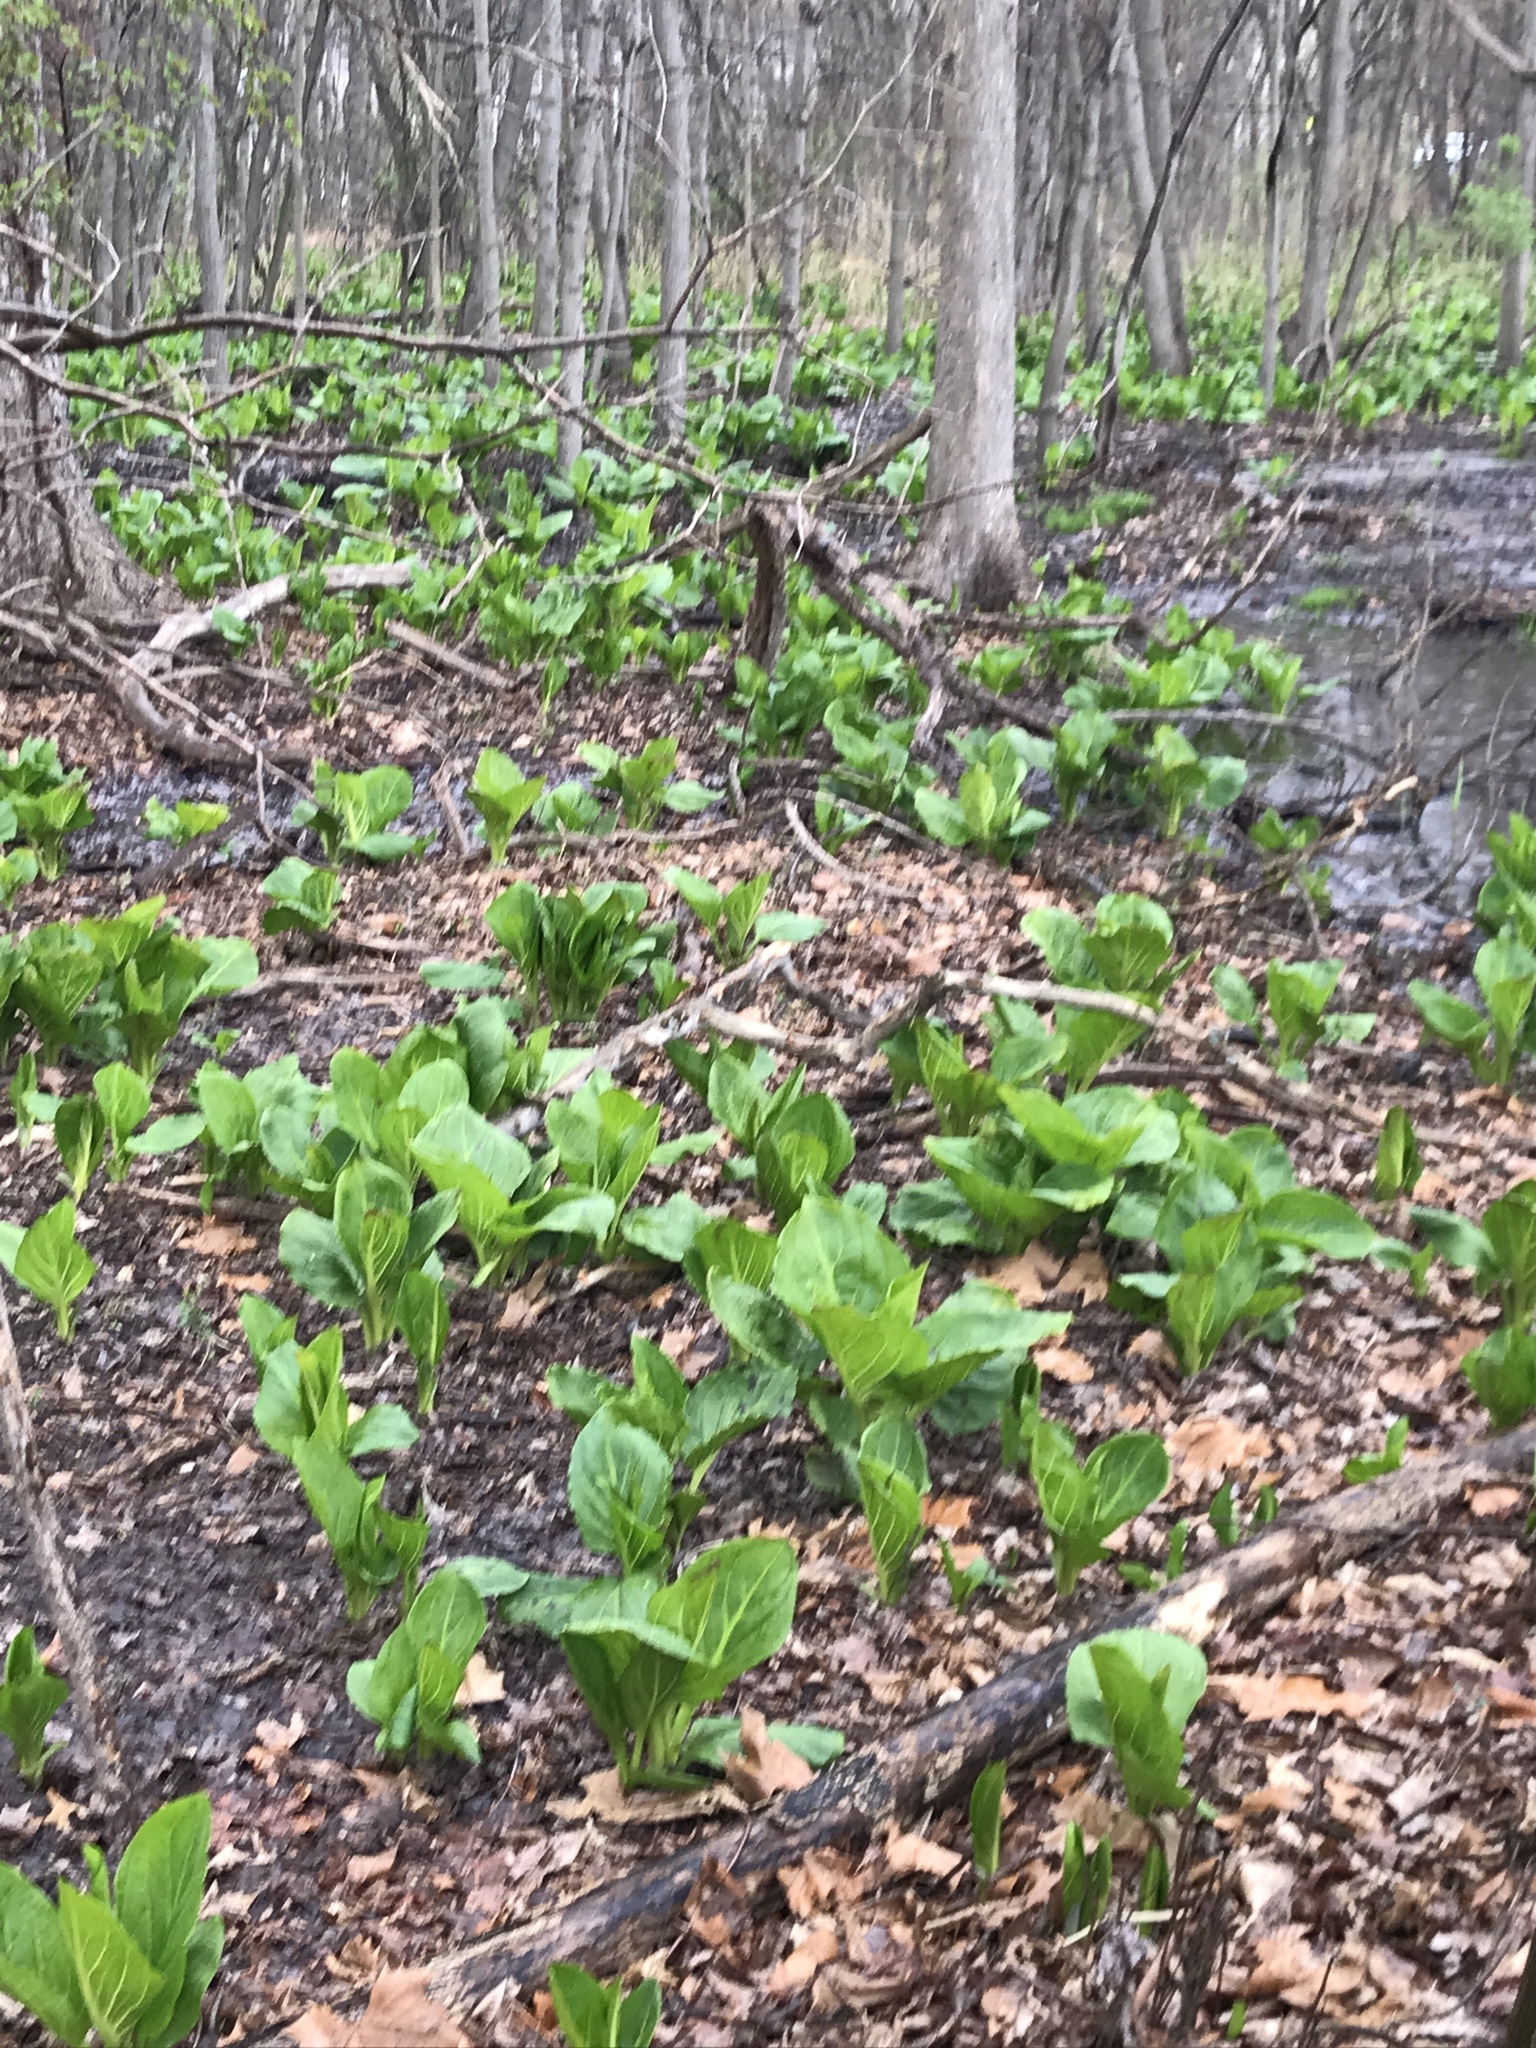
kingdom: Plantae
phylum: Tracheophyta
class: Liliopsida
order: Alismatales
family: Araceae
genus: Symplocarpus
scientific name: Symplocarpus foetidus
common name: Eastern skunk cabbage
